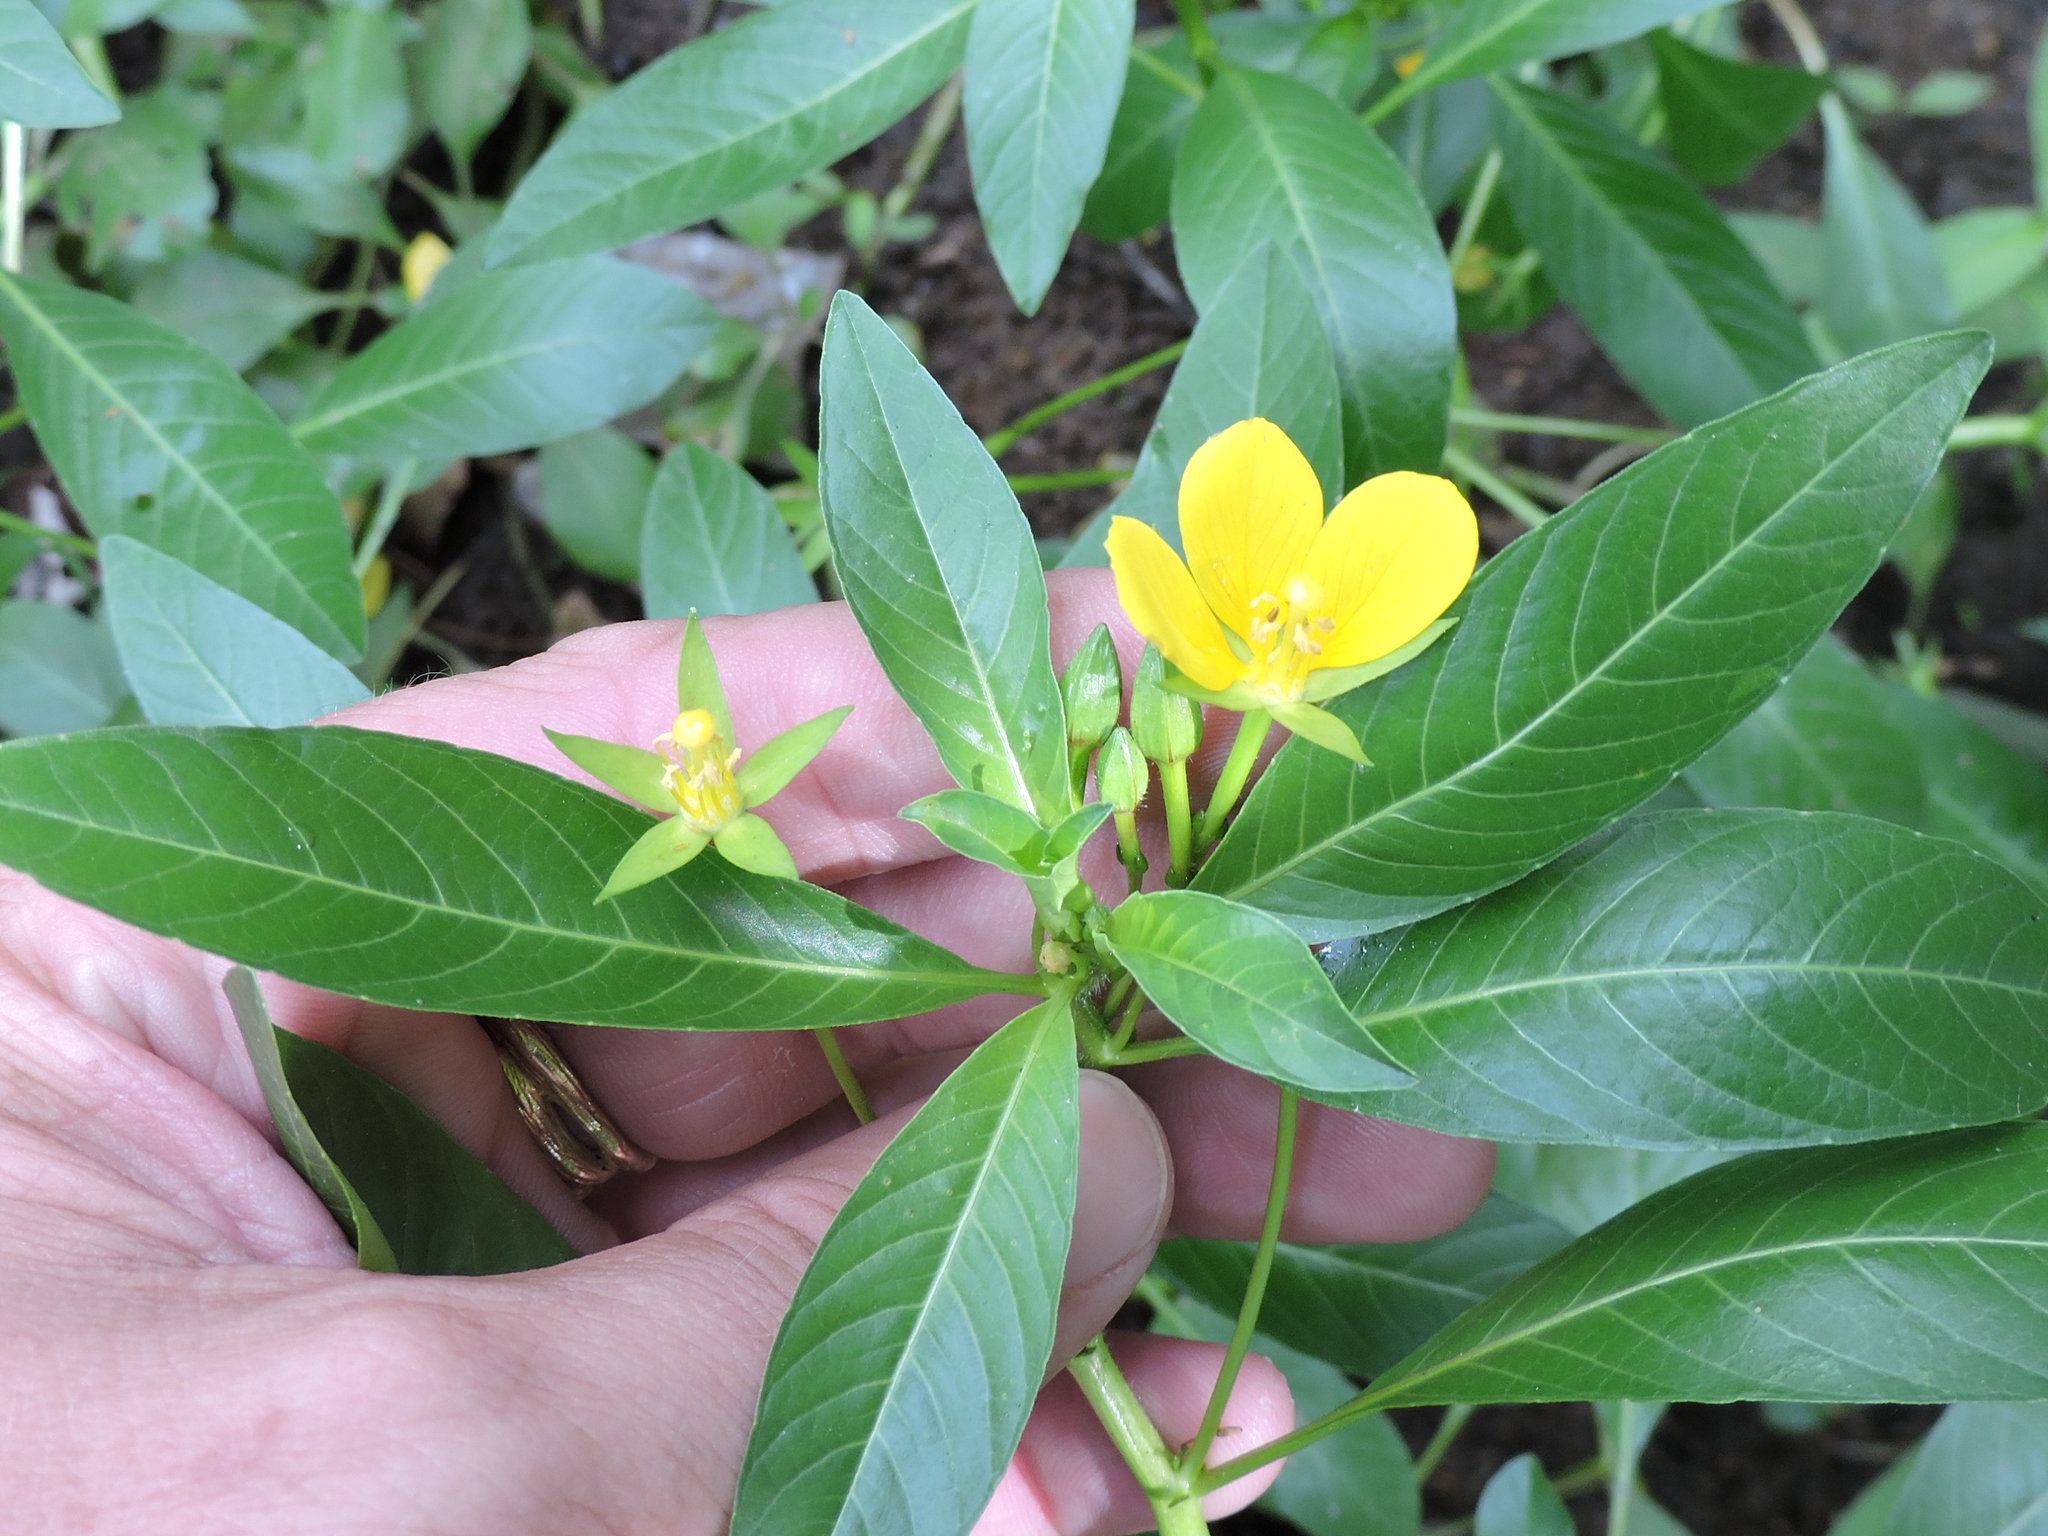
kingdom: Plantae
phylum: Tracheophyta
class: Magnoliopsida
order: Myrtales
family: Onagraceae
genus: Ludwigia
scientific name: Ludwigia peploides
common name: Floating primrose-willow
